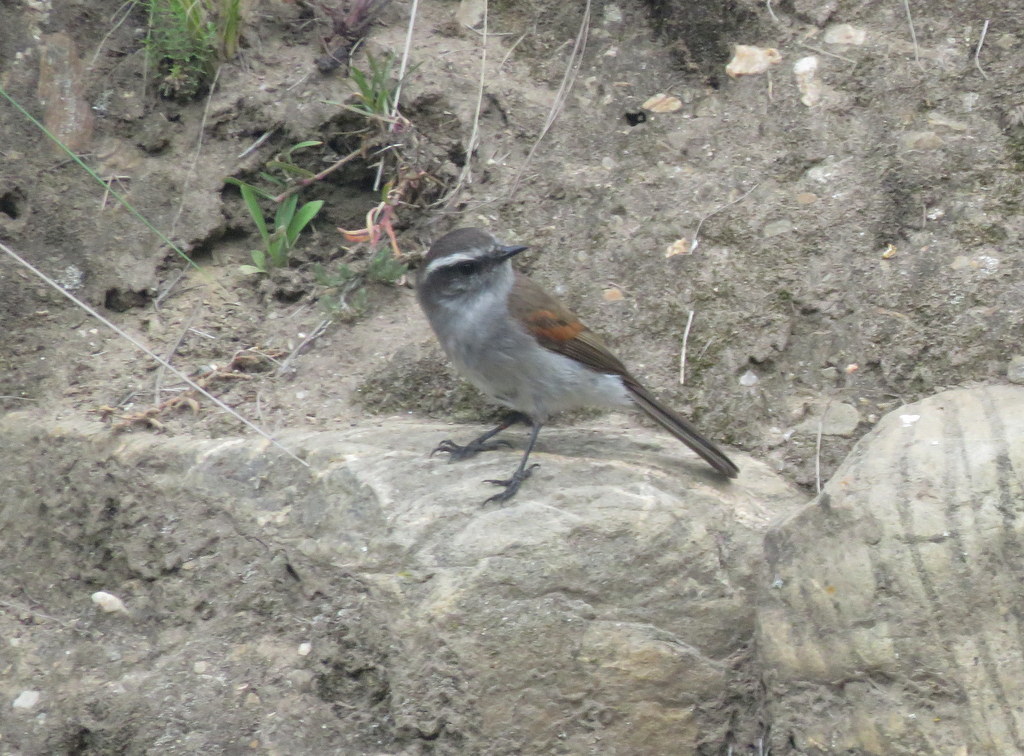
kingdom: Animalia
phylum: Chordata
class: Aves
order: Passeriformes
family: Tyrannidae
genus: Ochthoeca
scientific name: Ochthoeca leucophrys
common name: White-browed chat-tyrant
